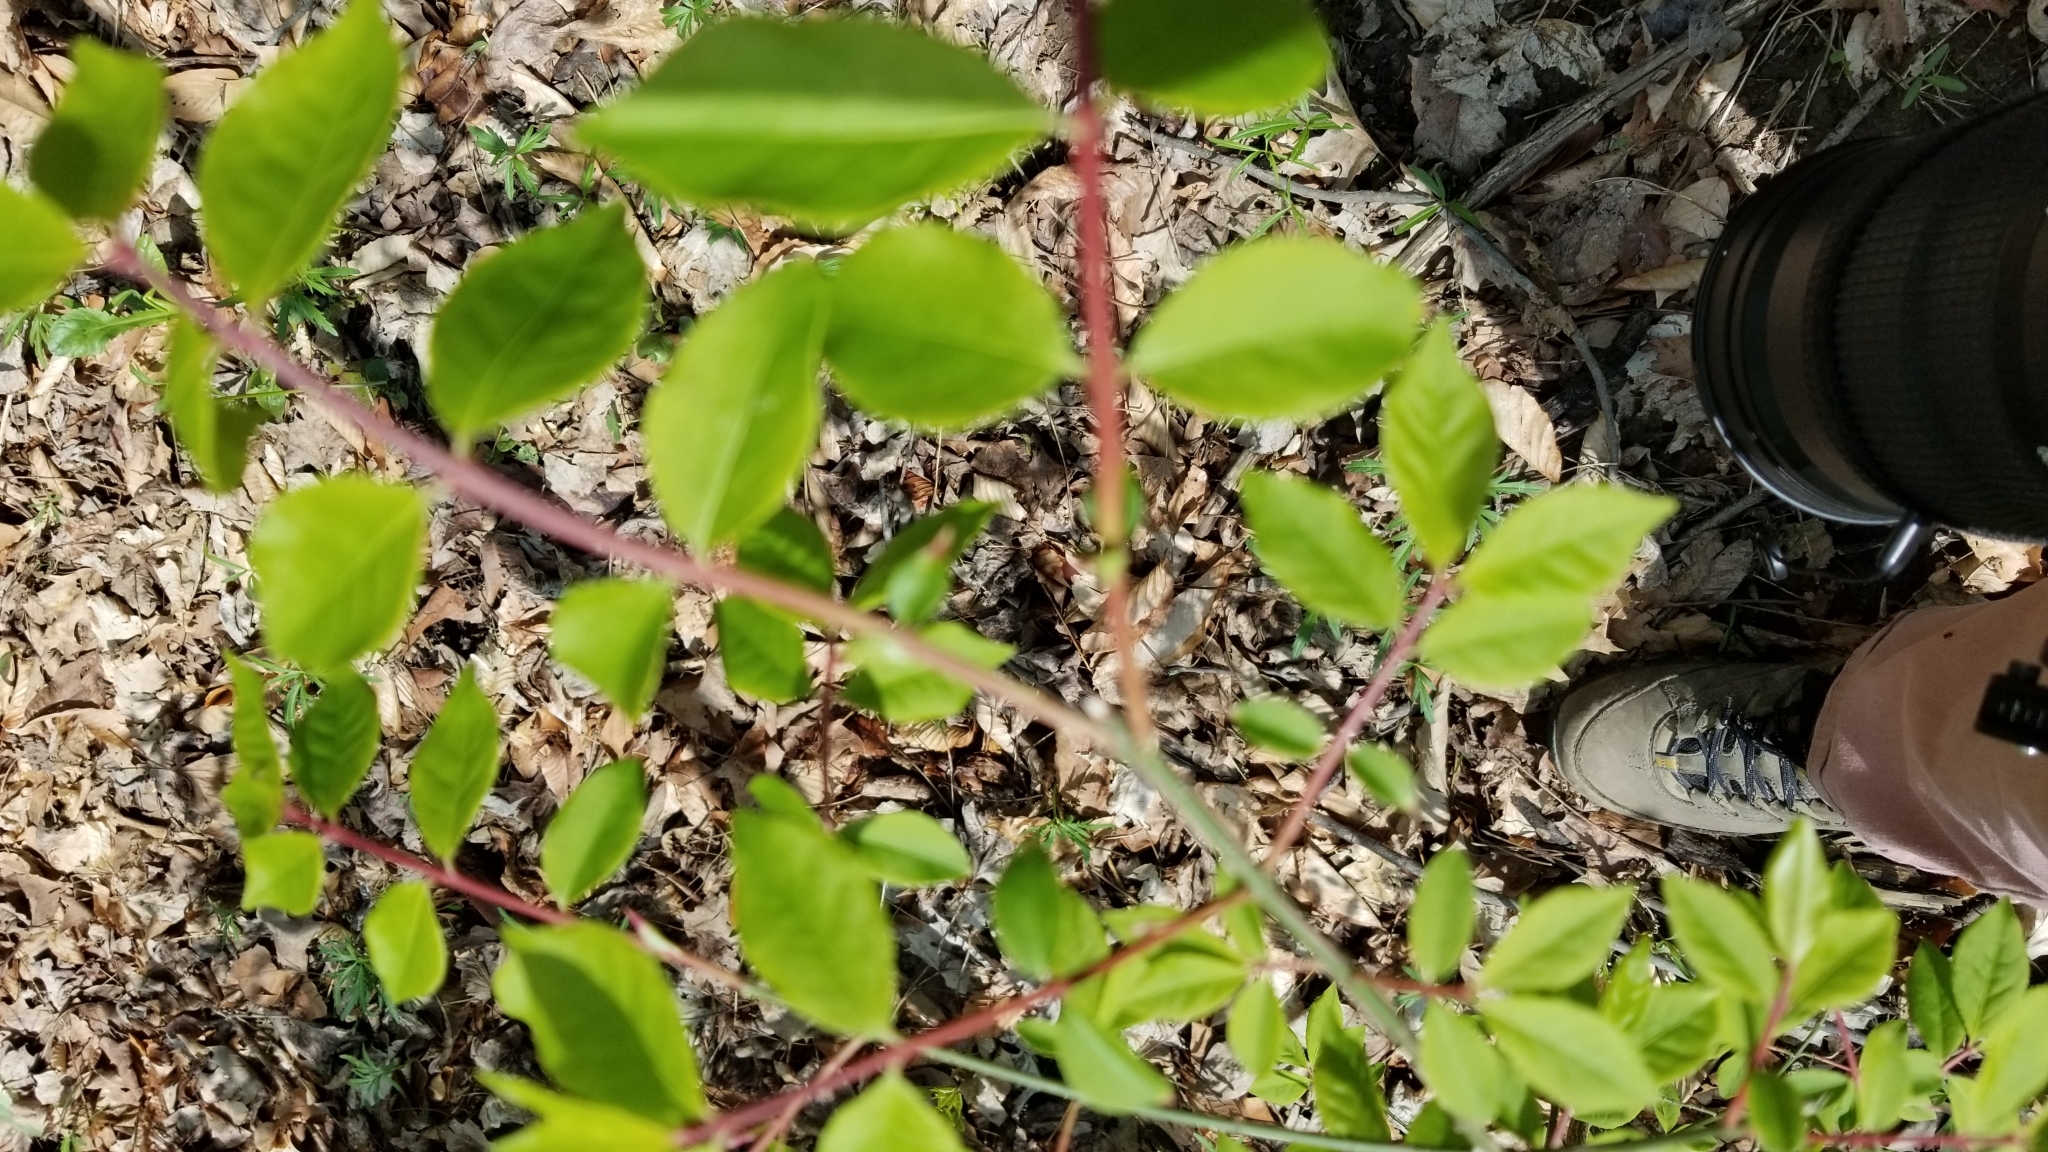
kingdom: Plantae
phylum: Tracheophyta
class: Magnoliopsida
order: Celastrales
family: Celastraceae
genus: Euonymus
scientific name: Euonymus alatus
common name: Winged euonymus
